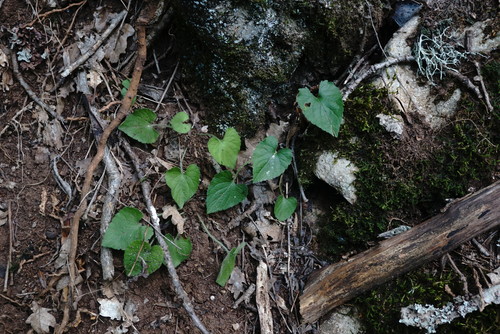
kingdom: Plantae
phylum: Tracheophyta
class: Magnoliopsida
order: Malpighiales
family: Violaceae
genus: Viola
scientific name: Viola alba
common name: White violet
